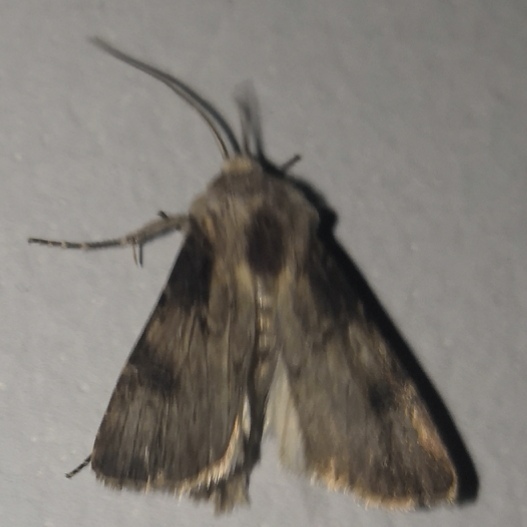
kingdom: Animalia
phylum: Arthropoda
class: Insecta
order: Lepidoptera
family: Noctuidae
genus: Agrotis
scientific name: Agrotis puta
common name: Shuttle-shaped dart
